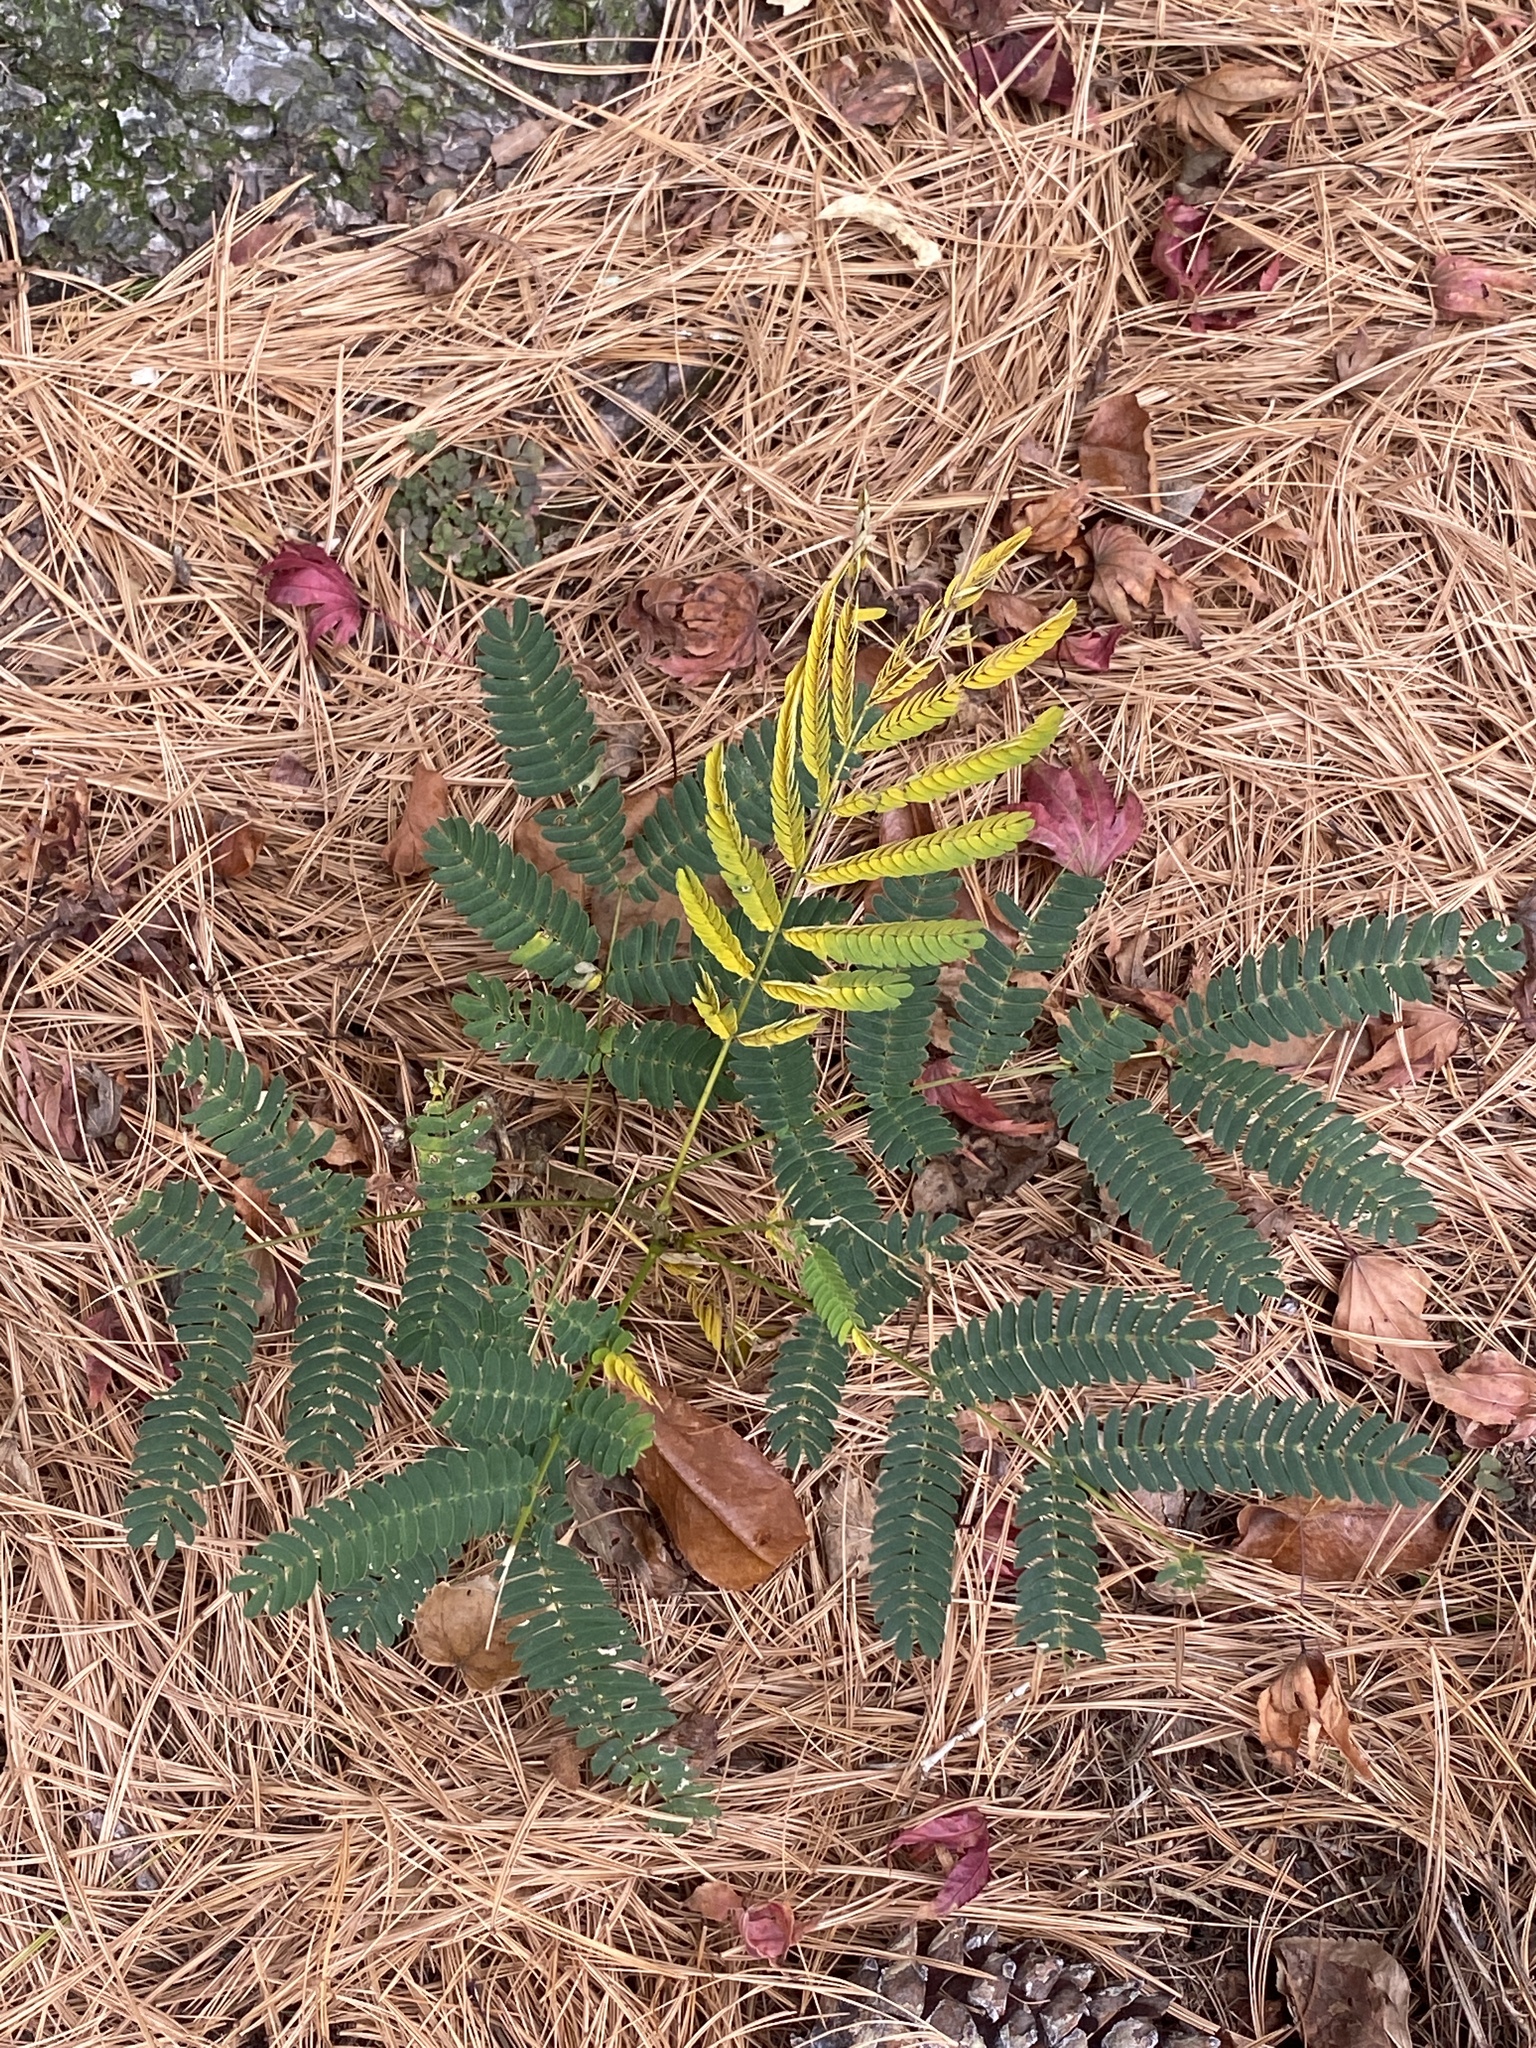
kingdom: Plantae
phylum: Tracheophyta
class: Magnoliopsida
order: Fabales
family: Fabaceae
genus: Albizia
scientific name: Albizia julibrissin
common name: Silktree
